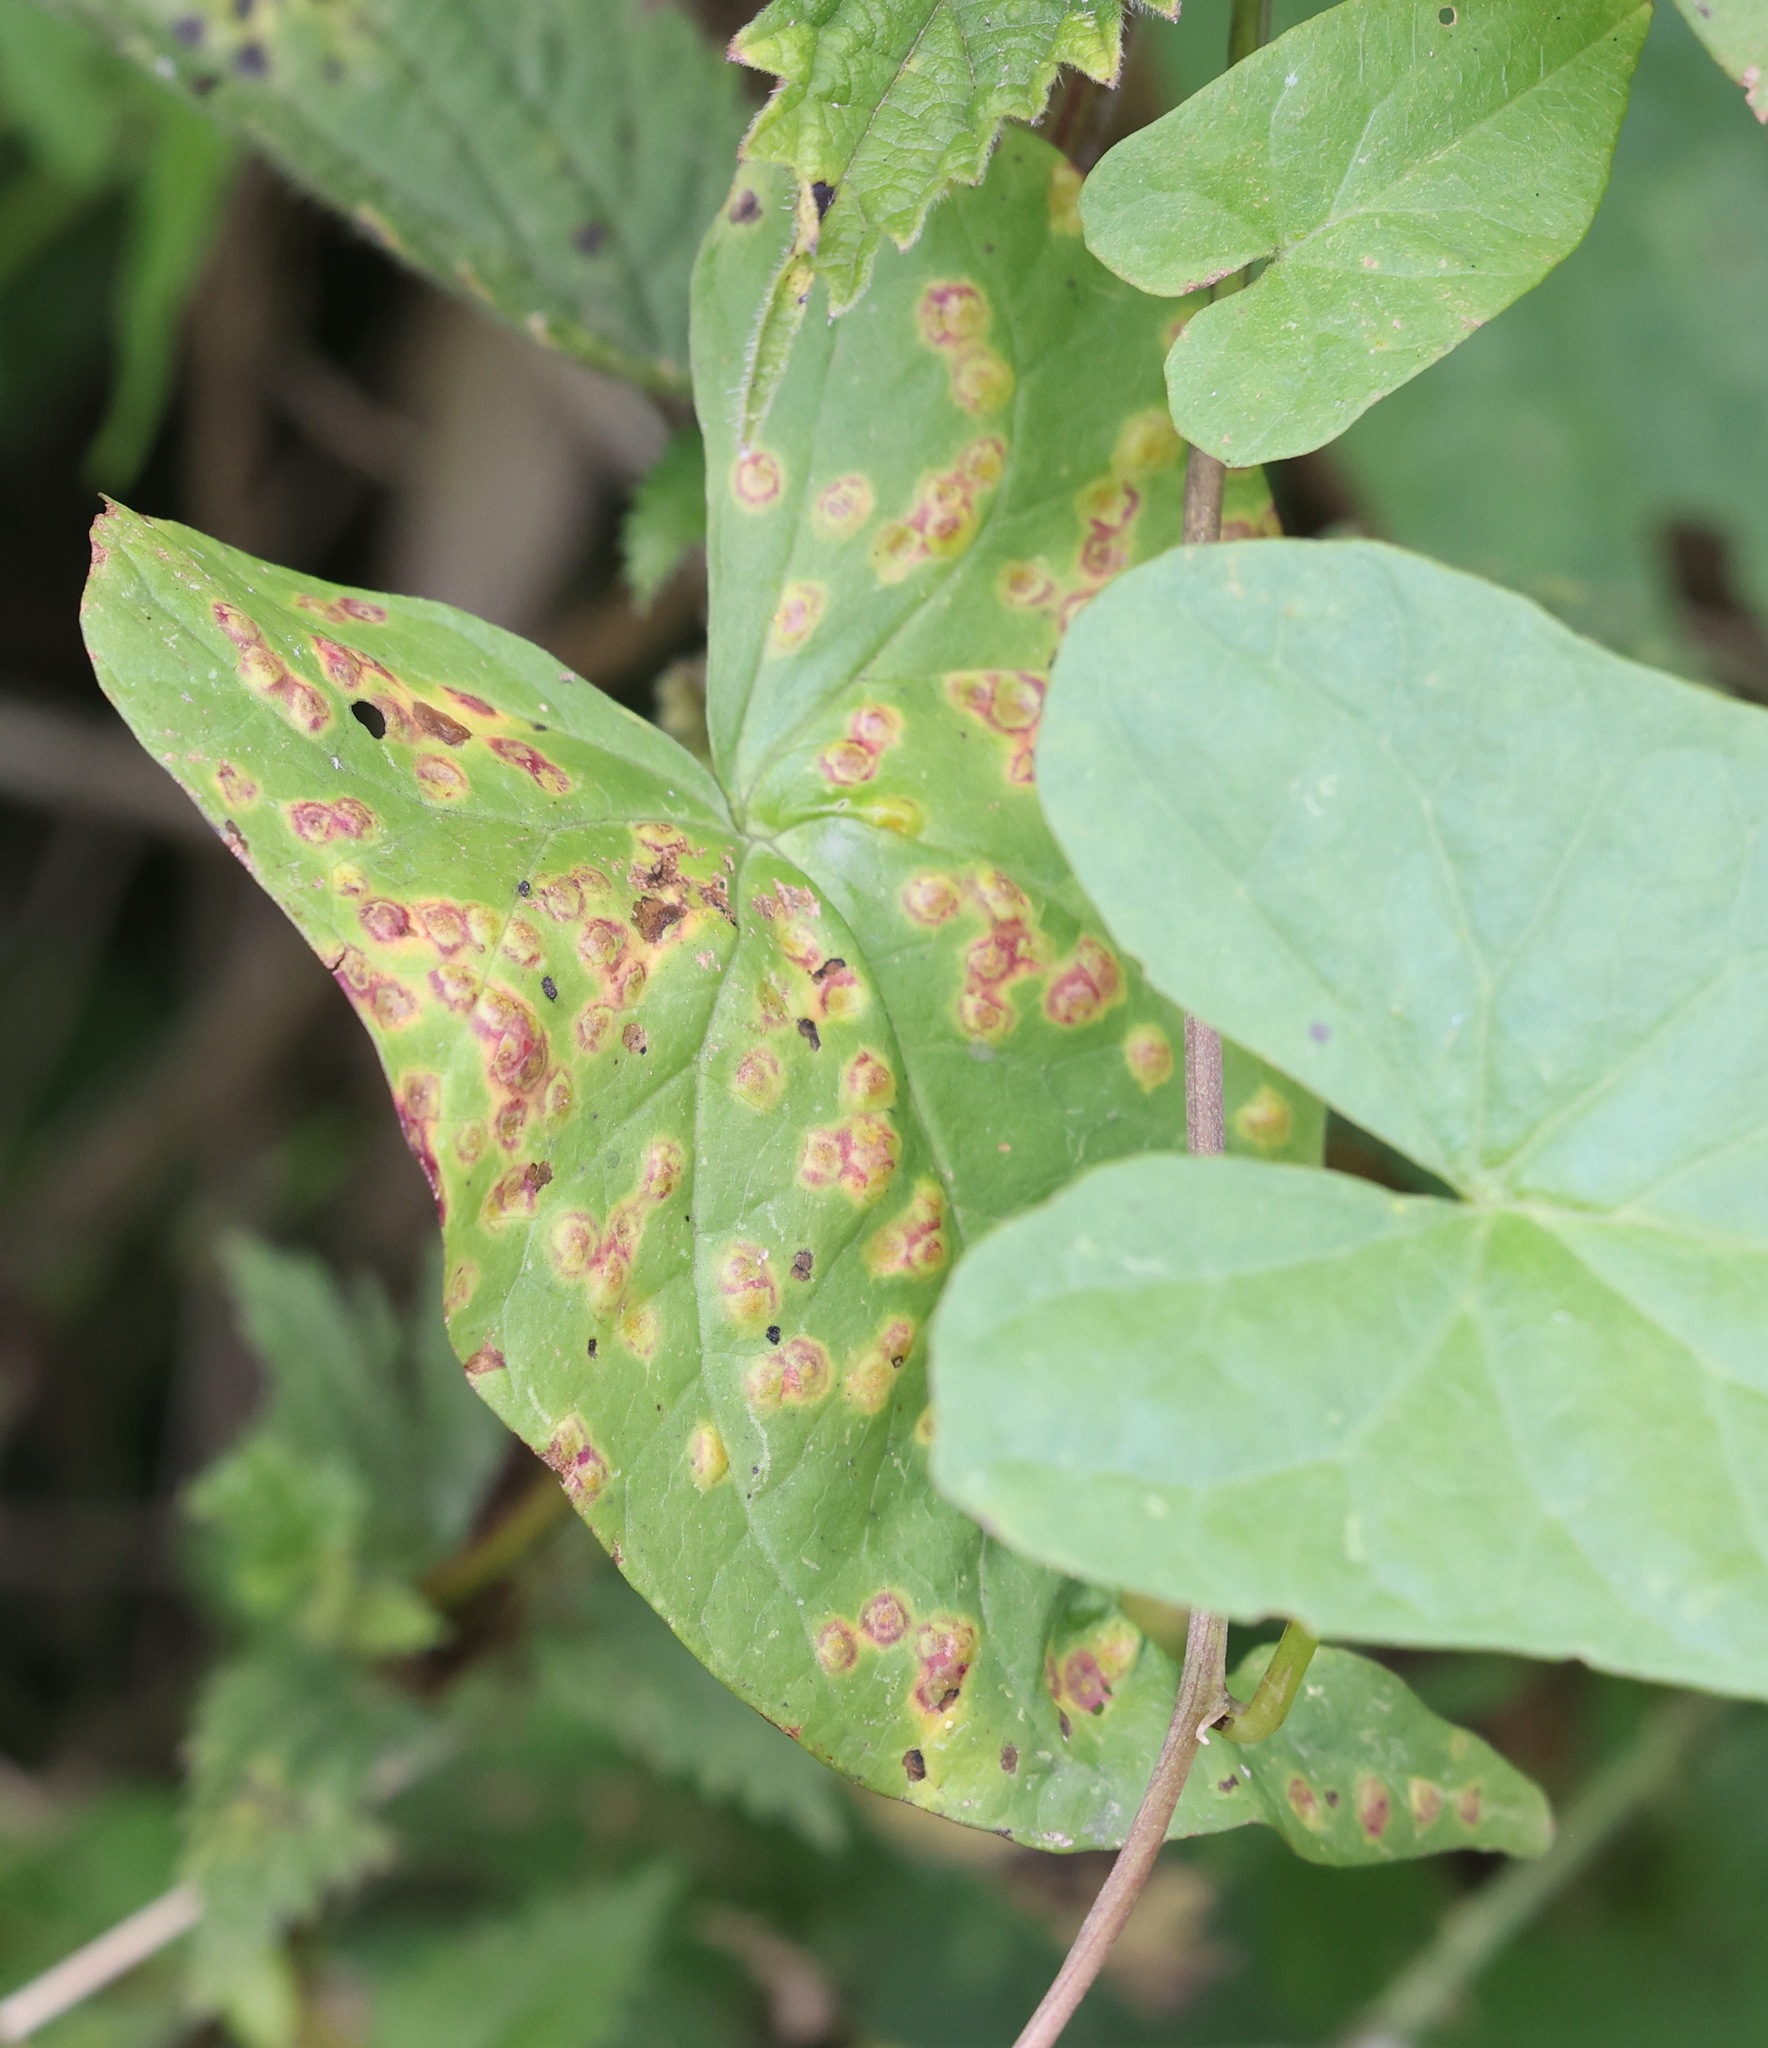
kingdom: Fungi
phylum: Basidiomycota
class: Pucciniomycetes
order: Pucciniales
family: Pucciniaceae
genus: Puccinia
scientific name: Puccinia convolvuli
